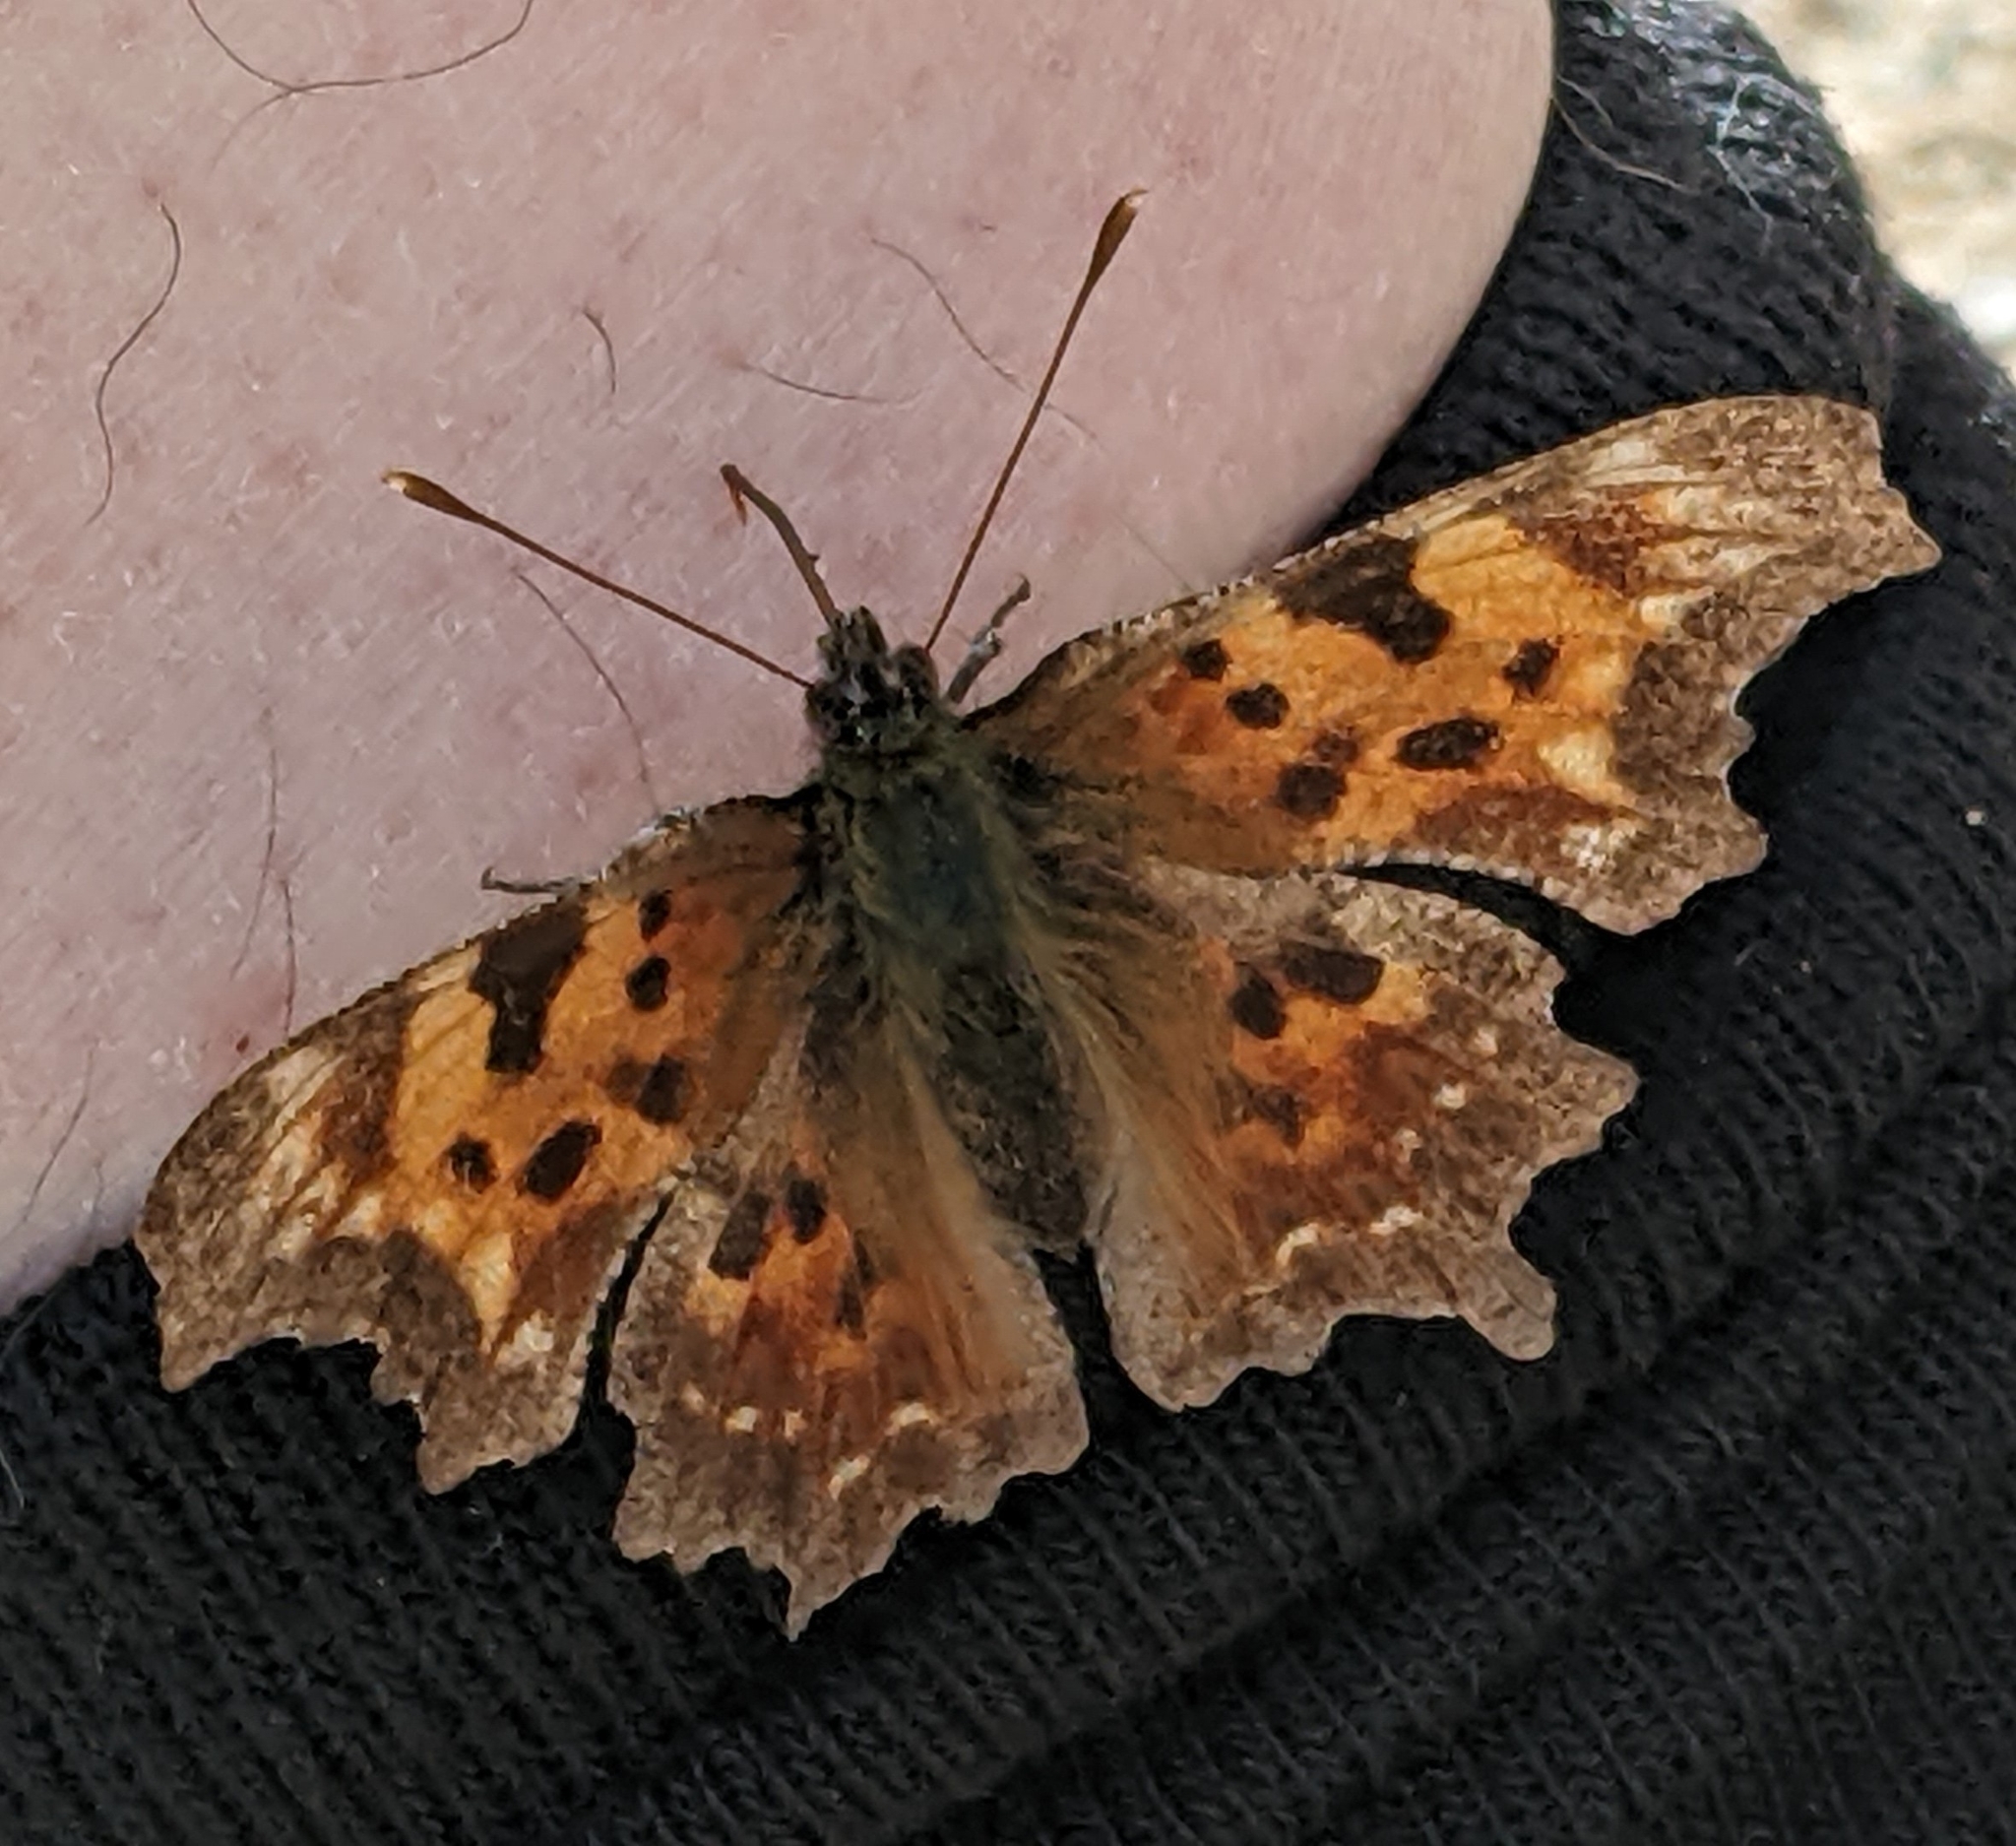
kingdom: Animalia
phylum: Arthropoda
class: Insecta
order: Lepidoptera
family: Nymphalidae
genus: Polygonia
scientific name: Polygonia faunus
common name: Green comma
